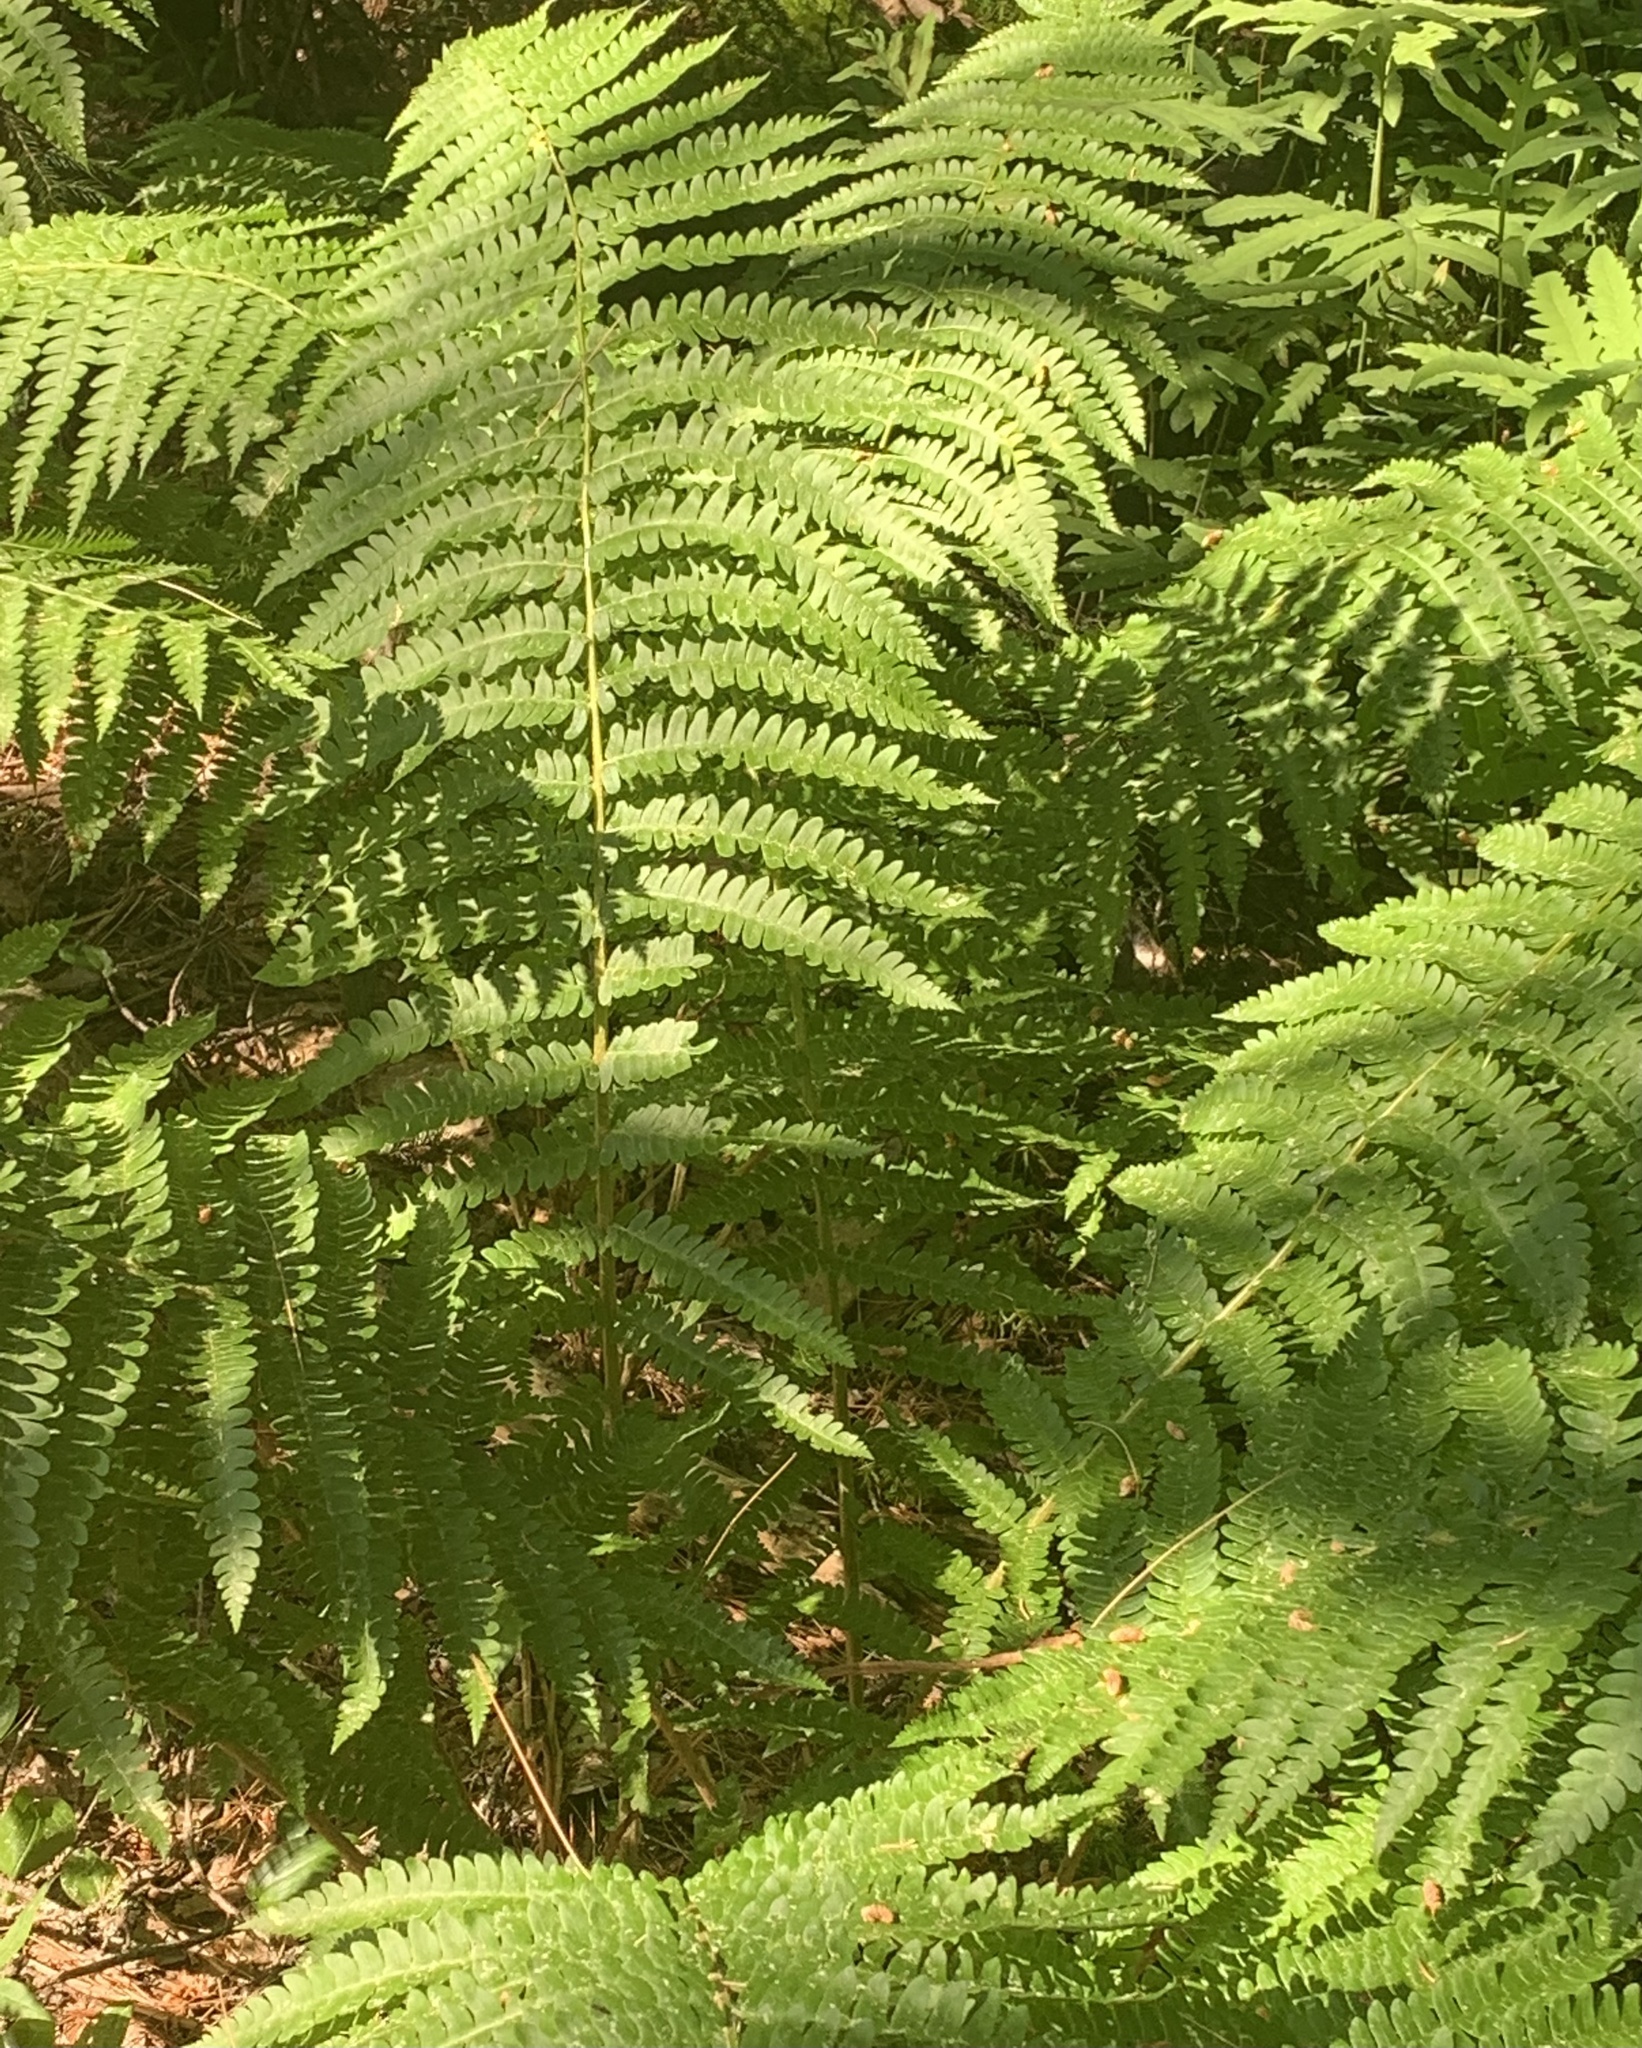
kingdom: Plantae
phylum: Tracheophyta
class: Polypodiopsida
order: Osmundales
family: Osmundaceae
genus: Osmundastrum
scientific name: Osmundastrum cinnamomeum
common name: Cinnamon fern
